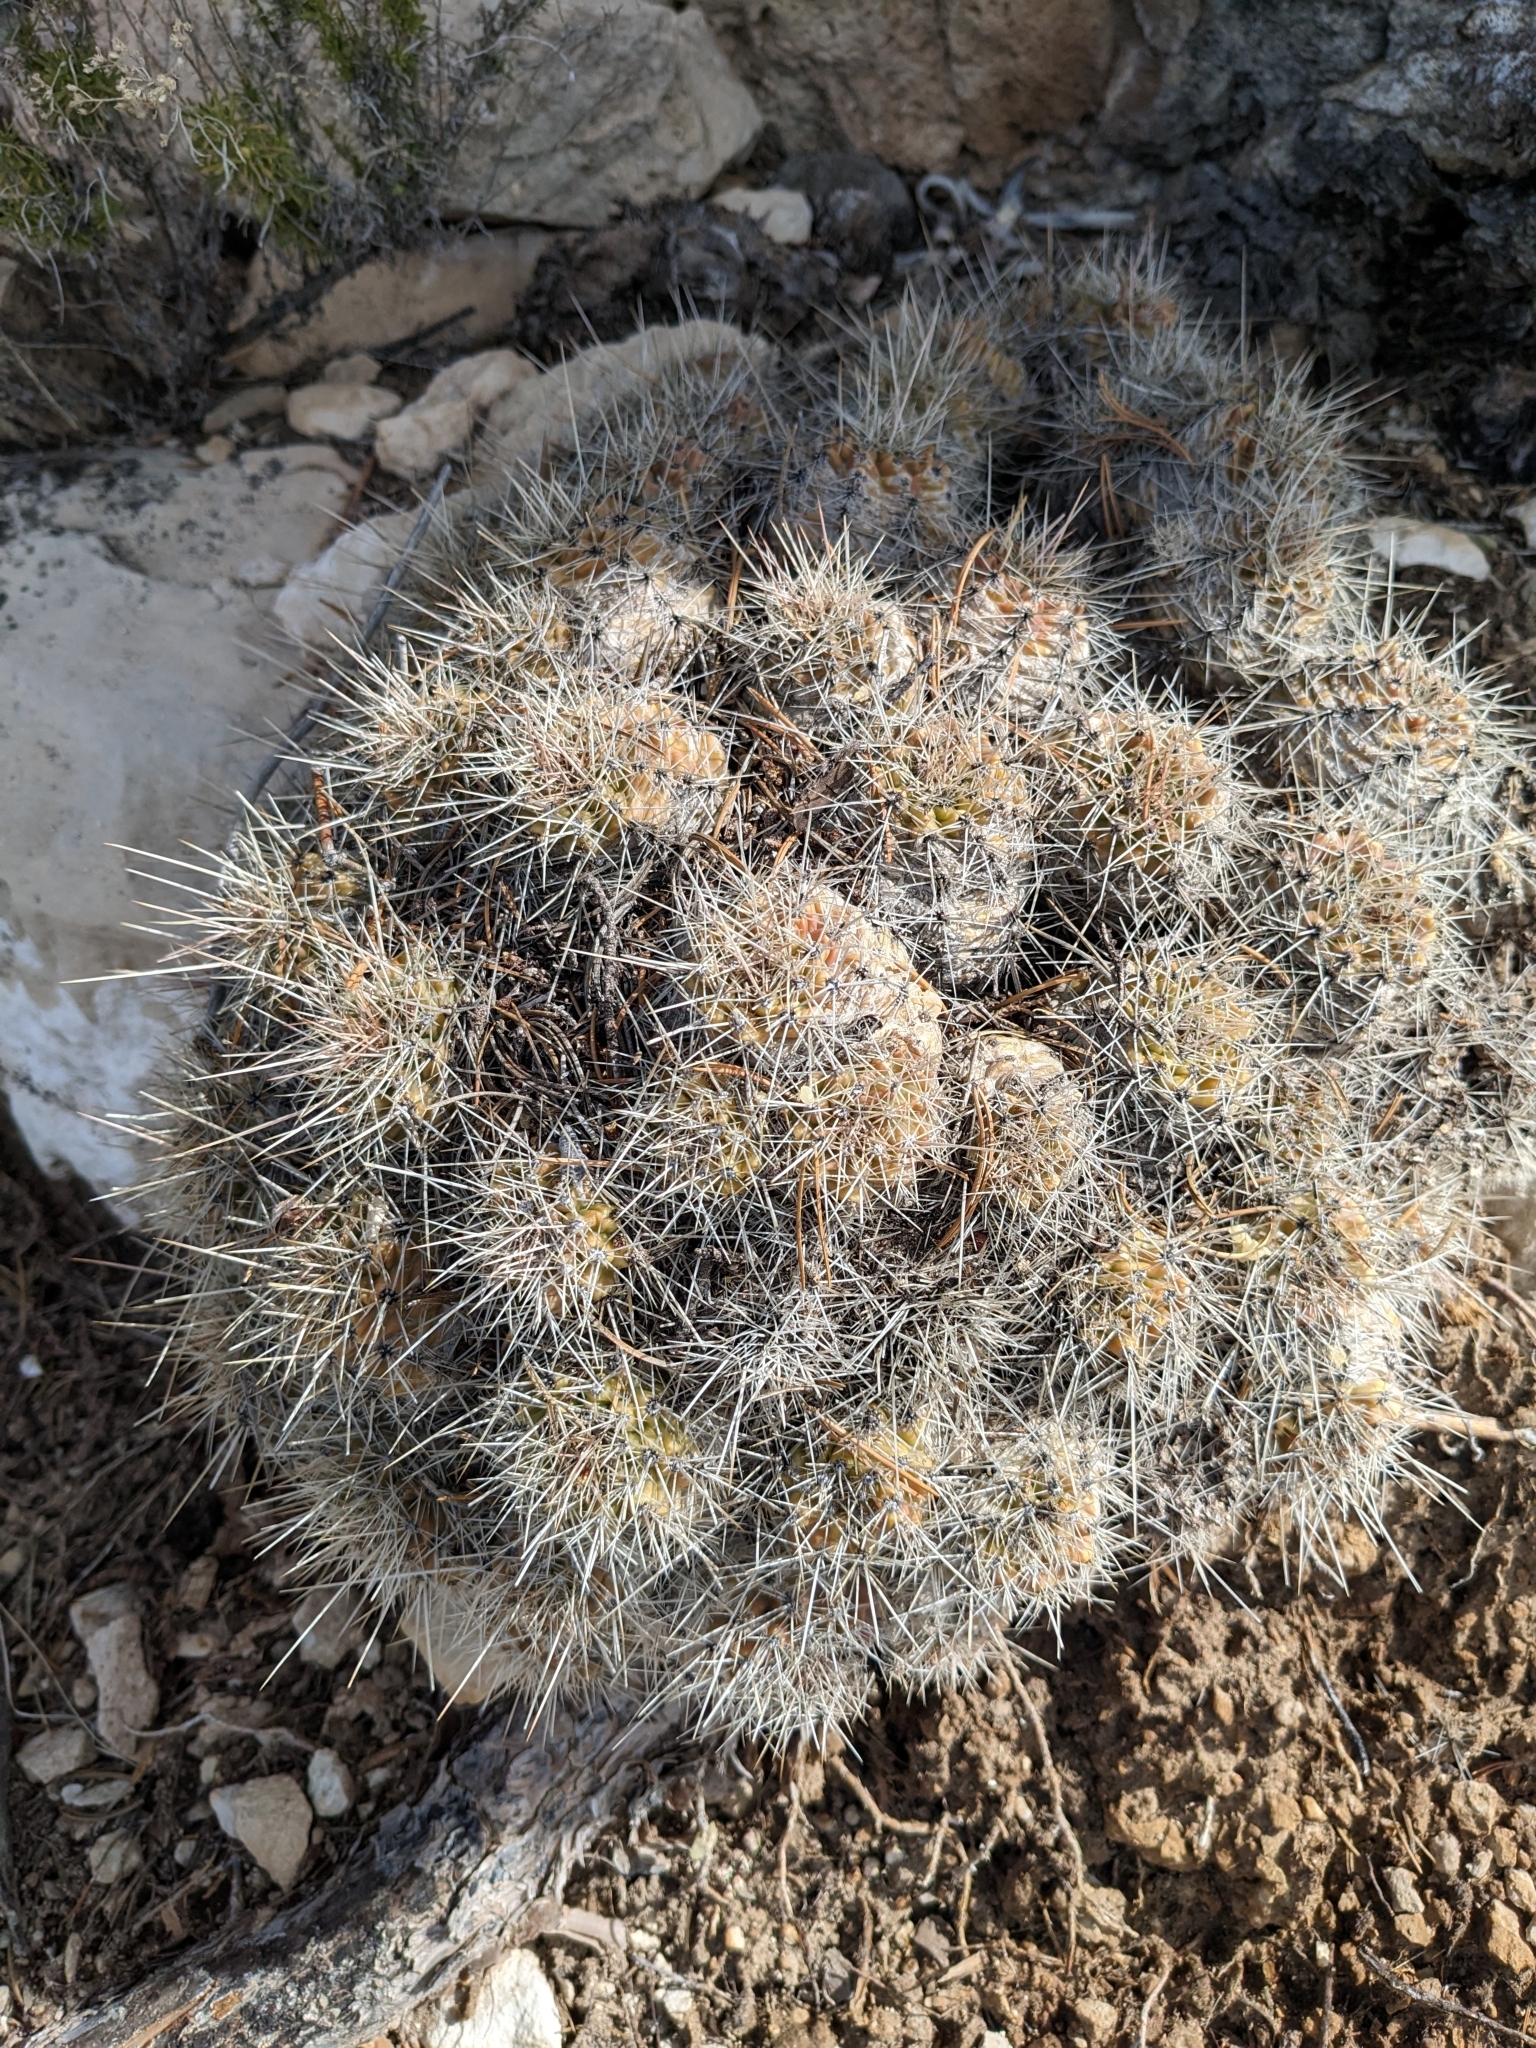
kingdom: Plantae
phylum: Tracheophyta
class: Magnoliopsida
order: Caryophyllales
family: Cactaceae
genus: Echinocereus
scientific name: Echinocereus bakeri
